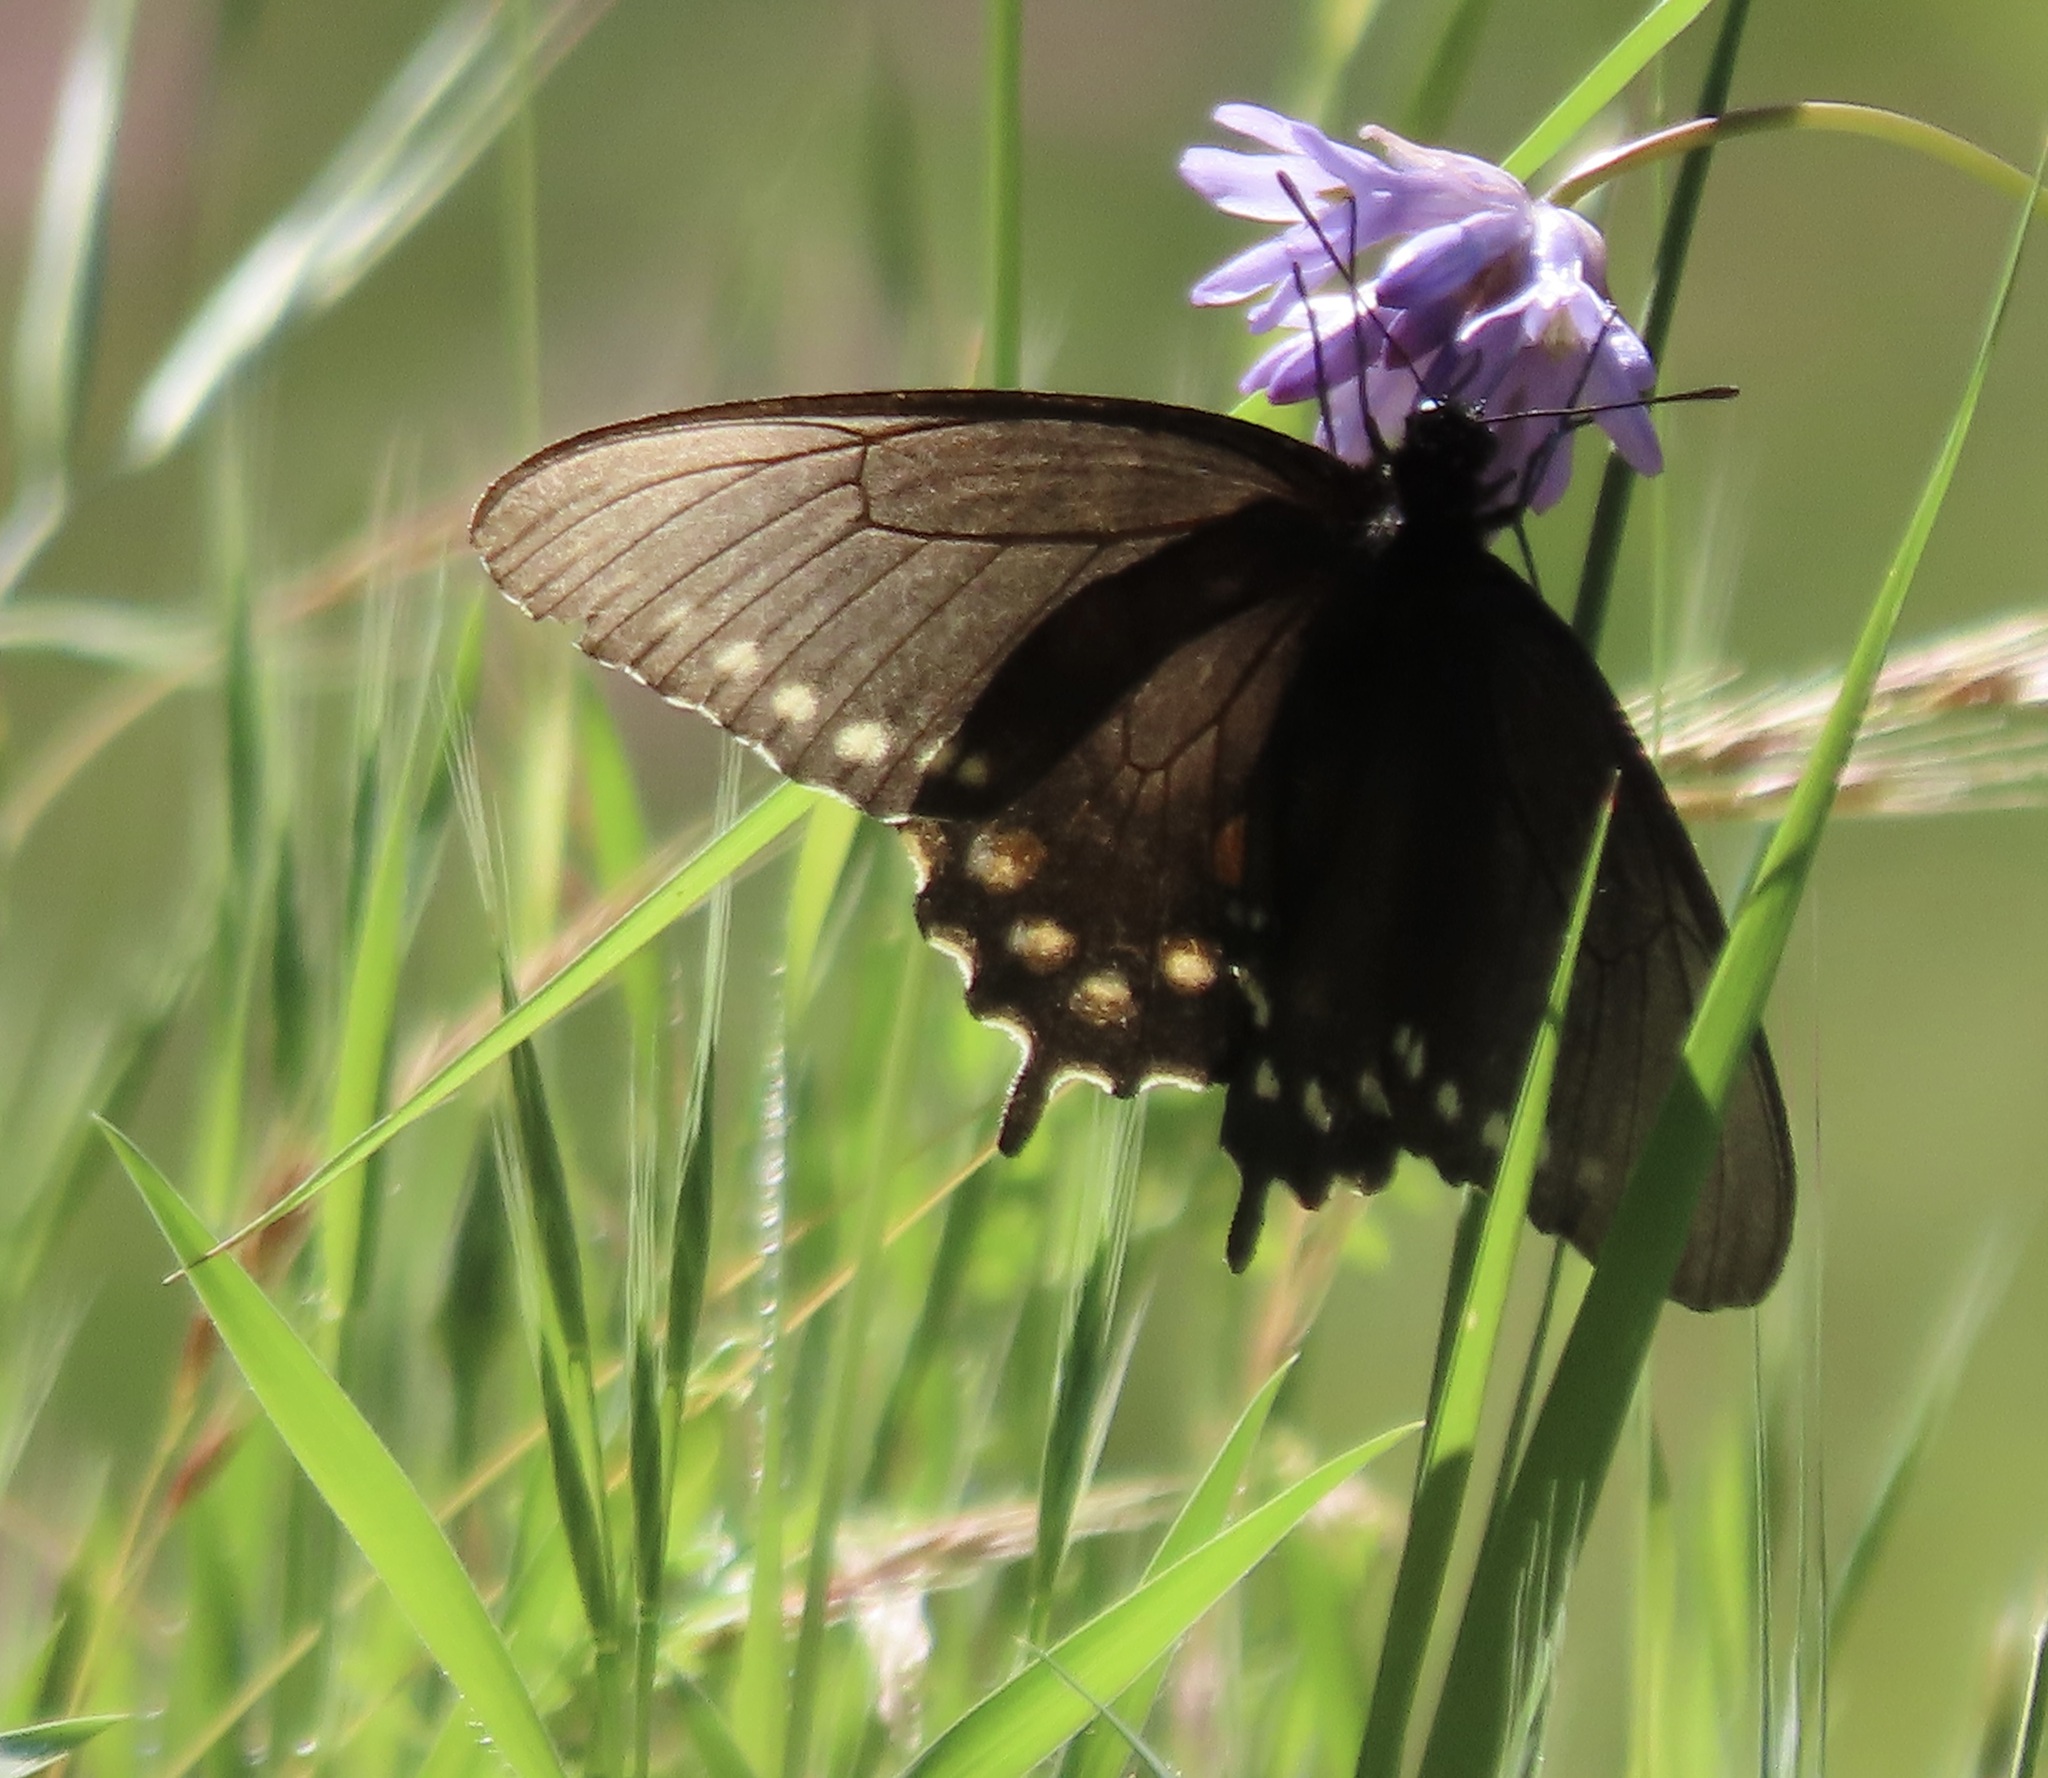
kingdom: Animalia
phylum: Arthropoda
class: Insecta
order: Lepidoptera
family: Papilionidae
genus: Battus
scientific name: Battus philenor
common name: Pipevine swallowtail
